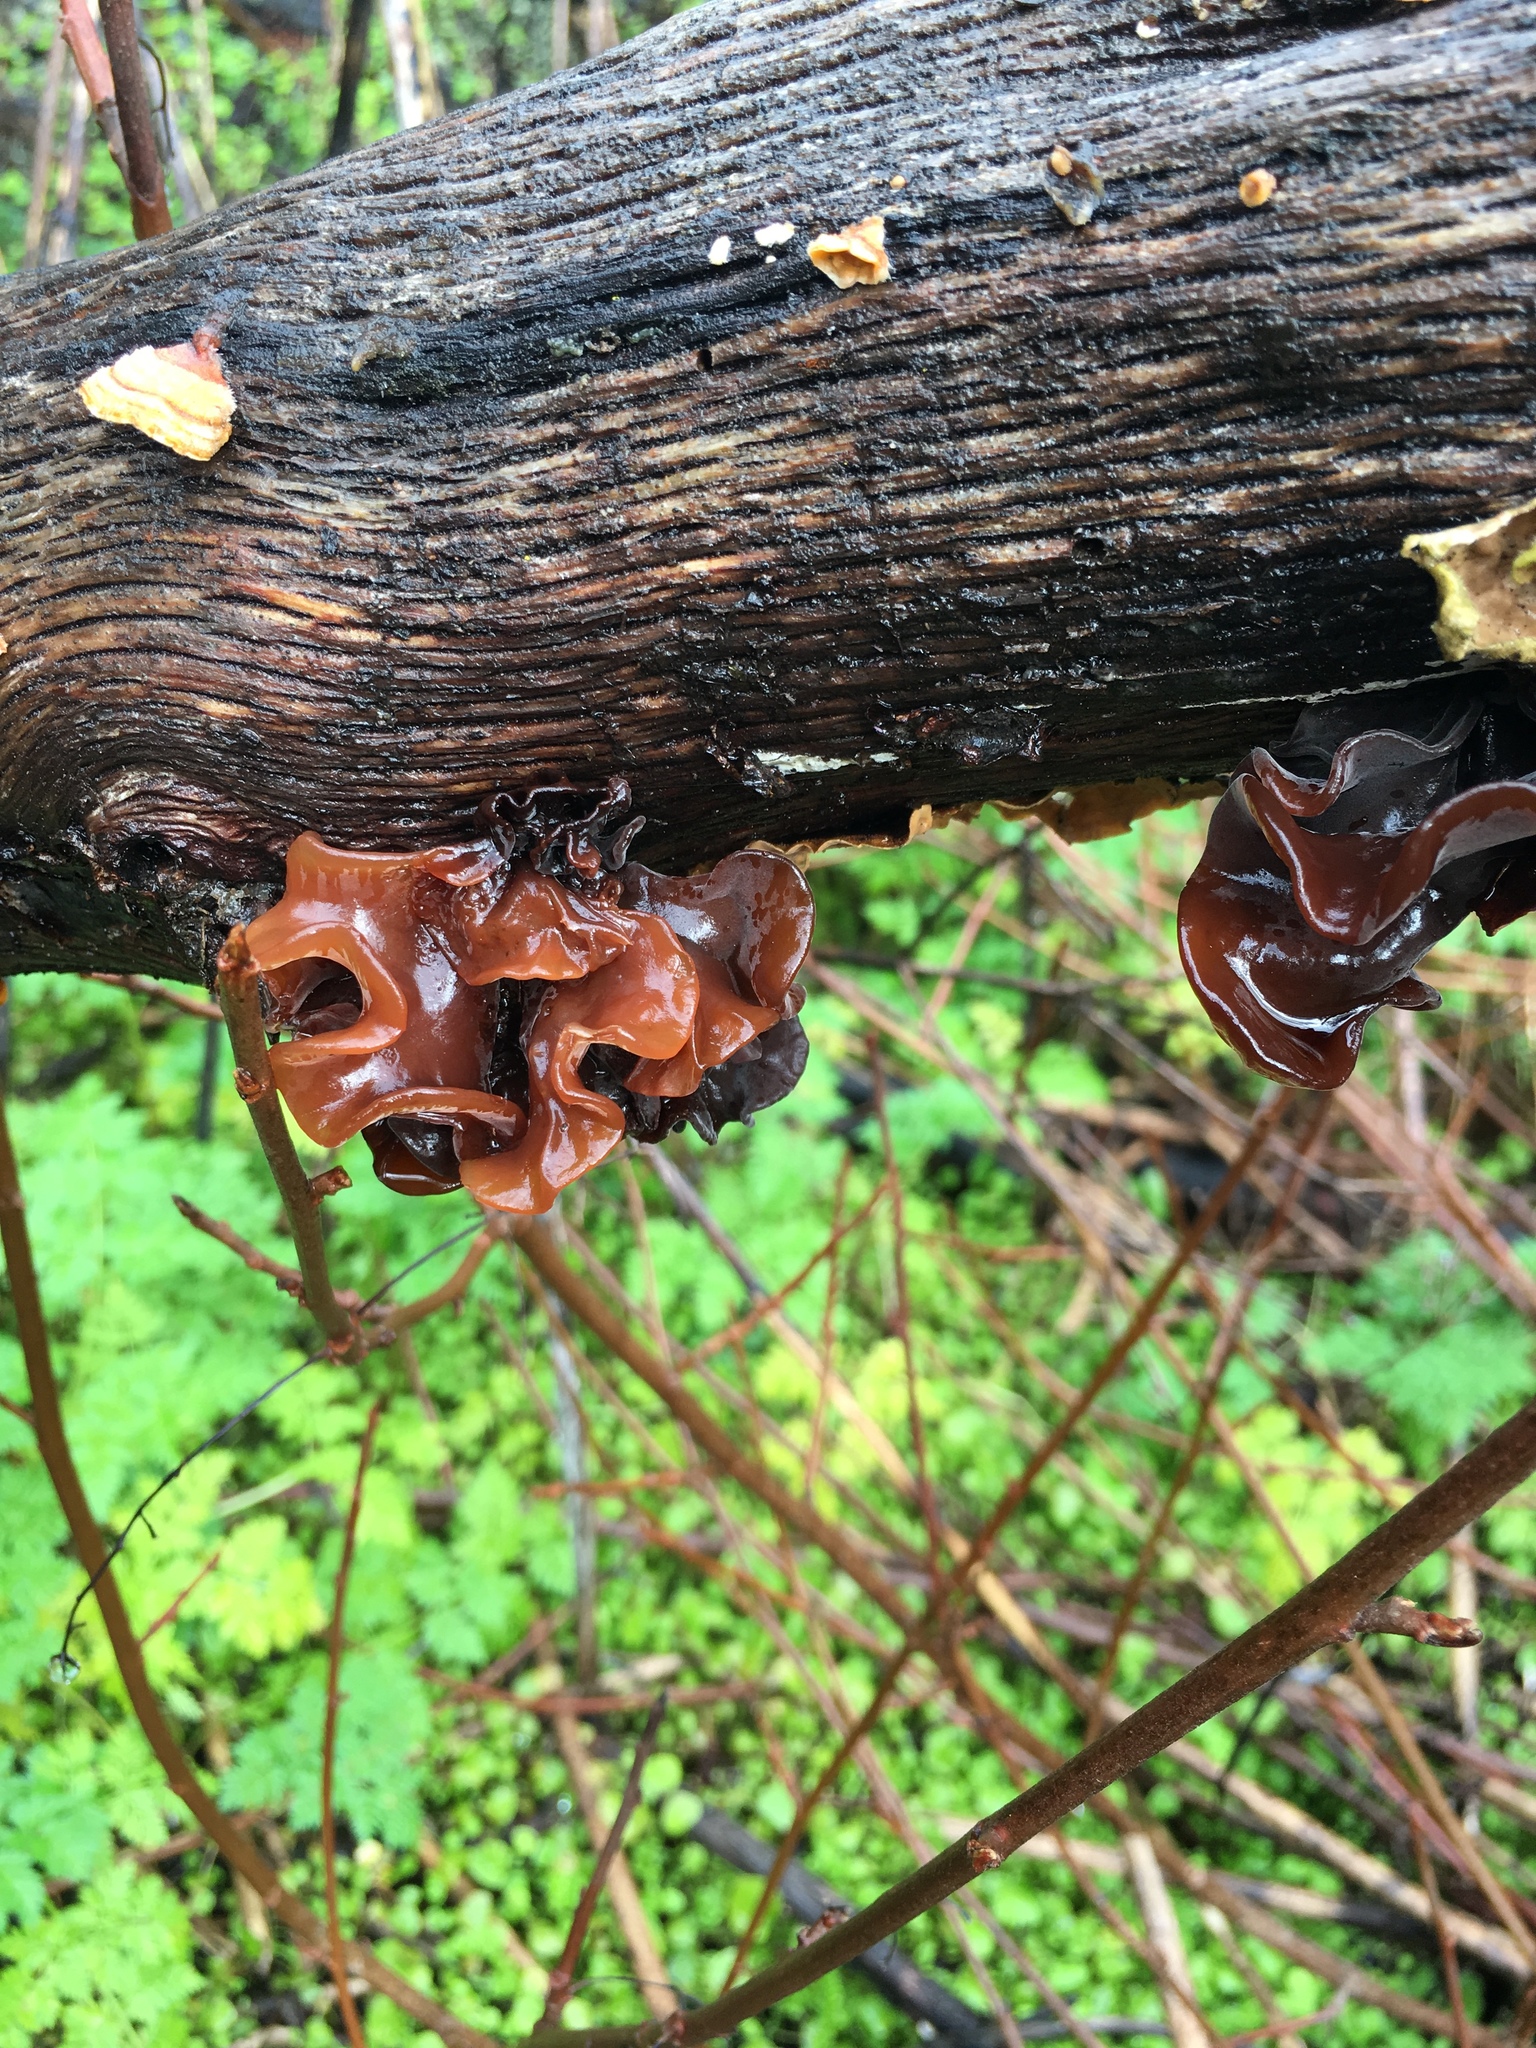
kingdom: Fungi
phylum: Basidiomycota
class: Tremellomycetes
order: Tremellales
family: Tremellaceae
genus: Phaeotremella
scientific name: Phaeotremella foliacea
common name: Leafy brain
